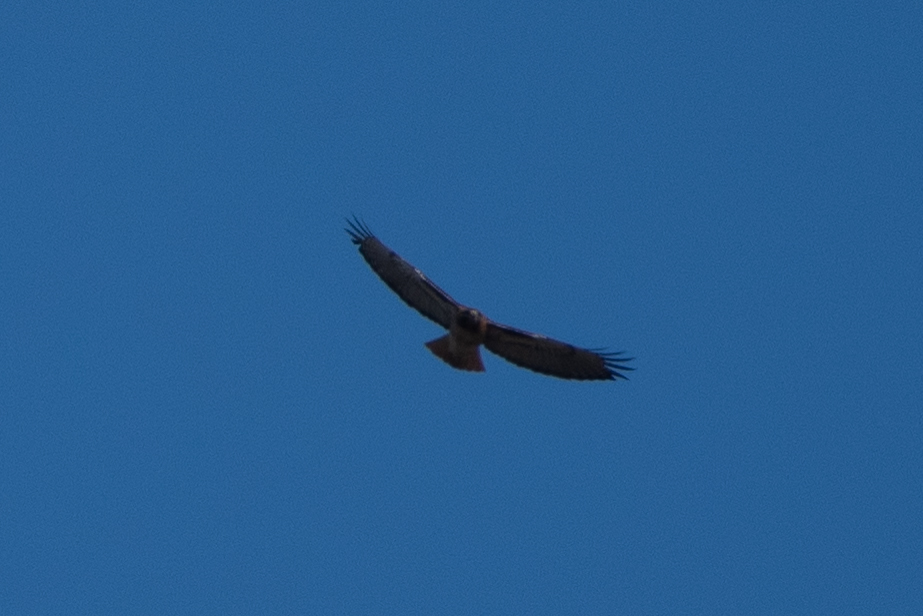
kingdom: Animalia
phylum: Chordata
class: Aves
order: Accipitriformes
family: Accipitridae
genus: Buteo
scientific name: Buteo jamaicensis
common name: Red-tailed hawk
